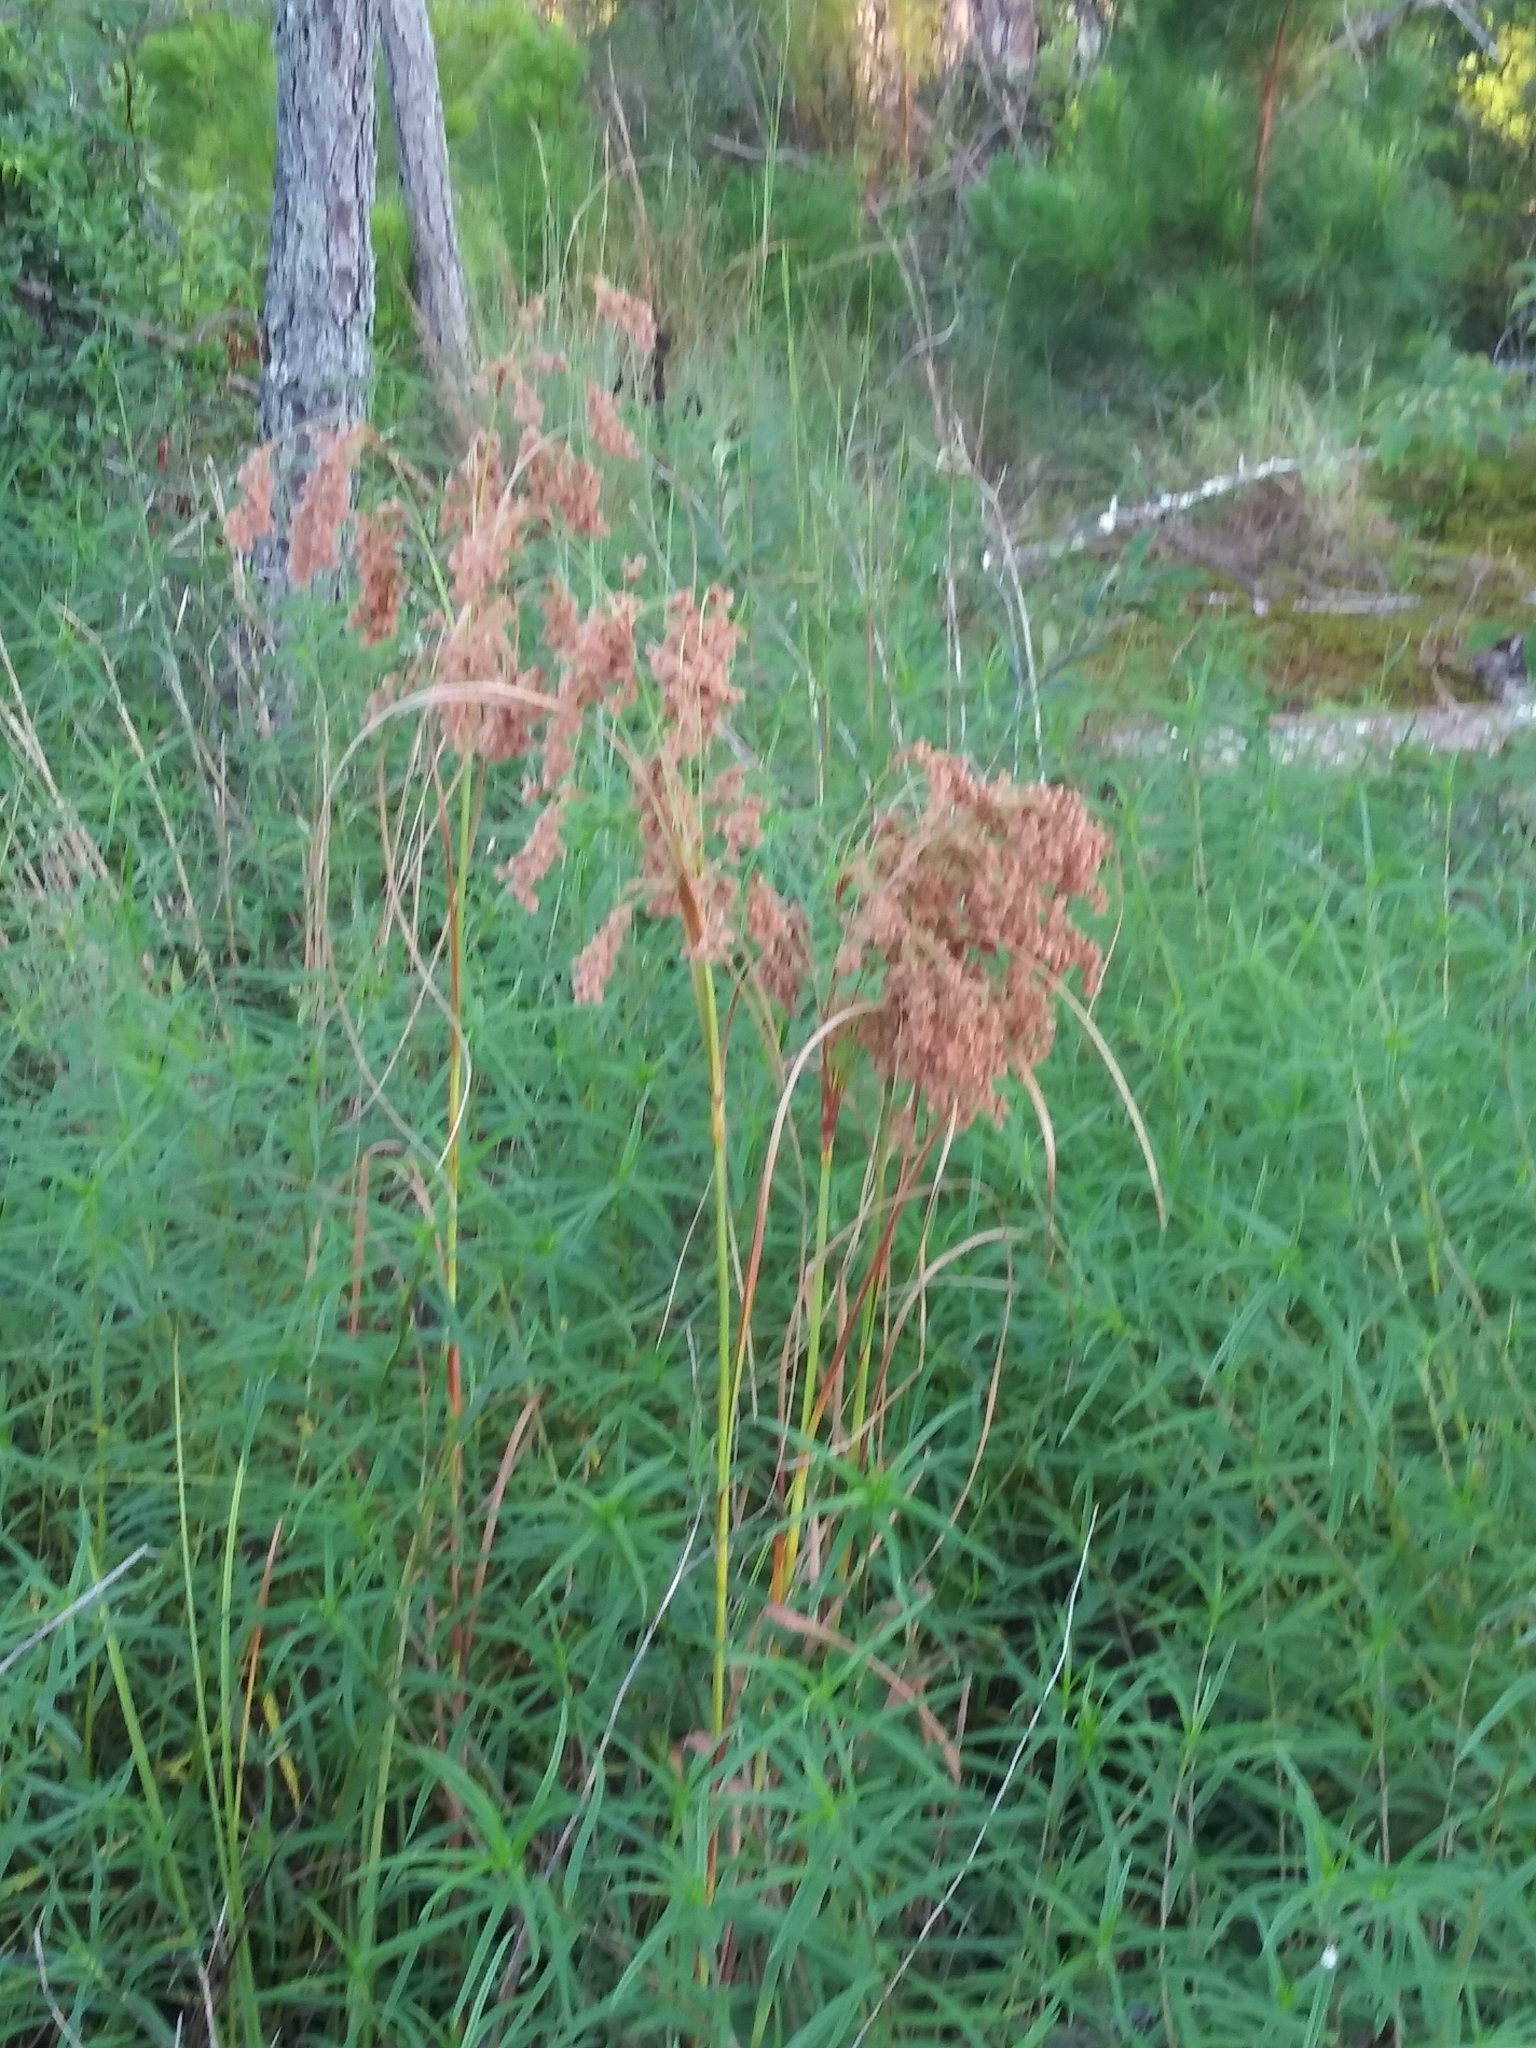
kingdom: Plantae
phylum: Tracheophyta
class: Liliopsida
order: Poales
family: Cyperaceae
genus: Scirpus
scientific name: Scirpus cyperinus
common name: Black-sheathed bulrush
